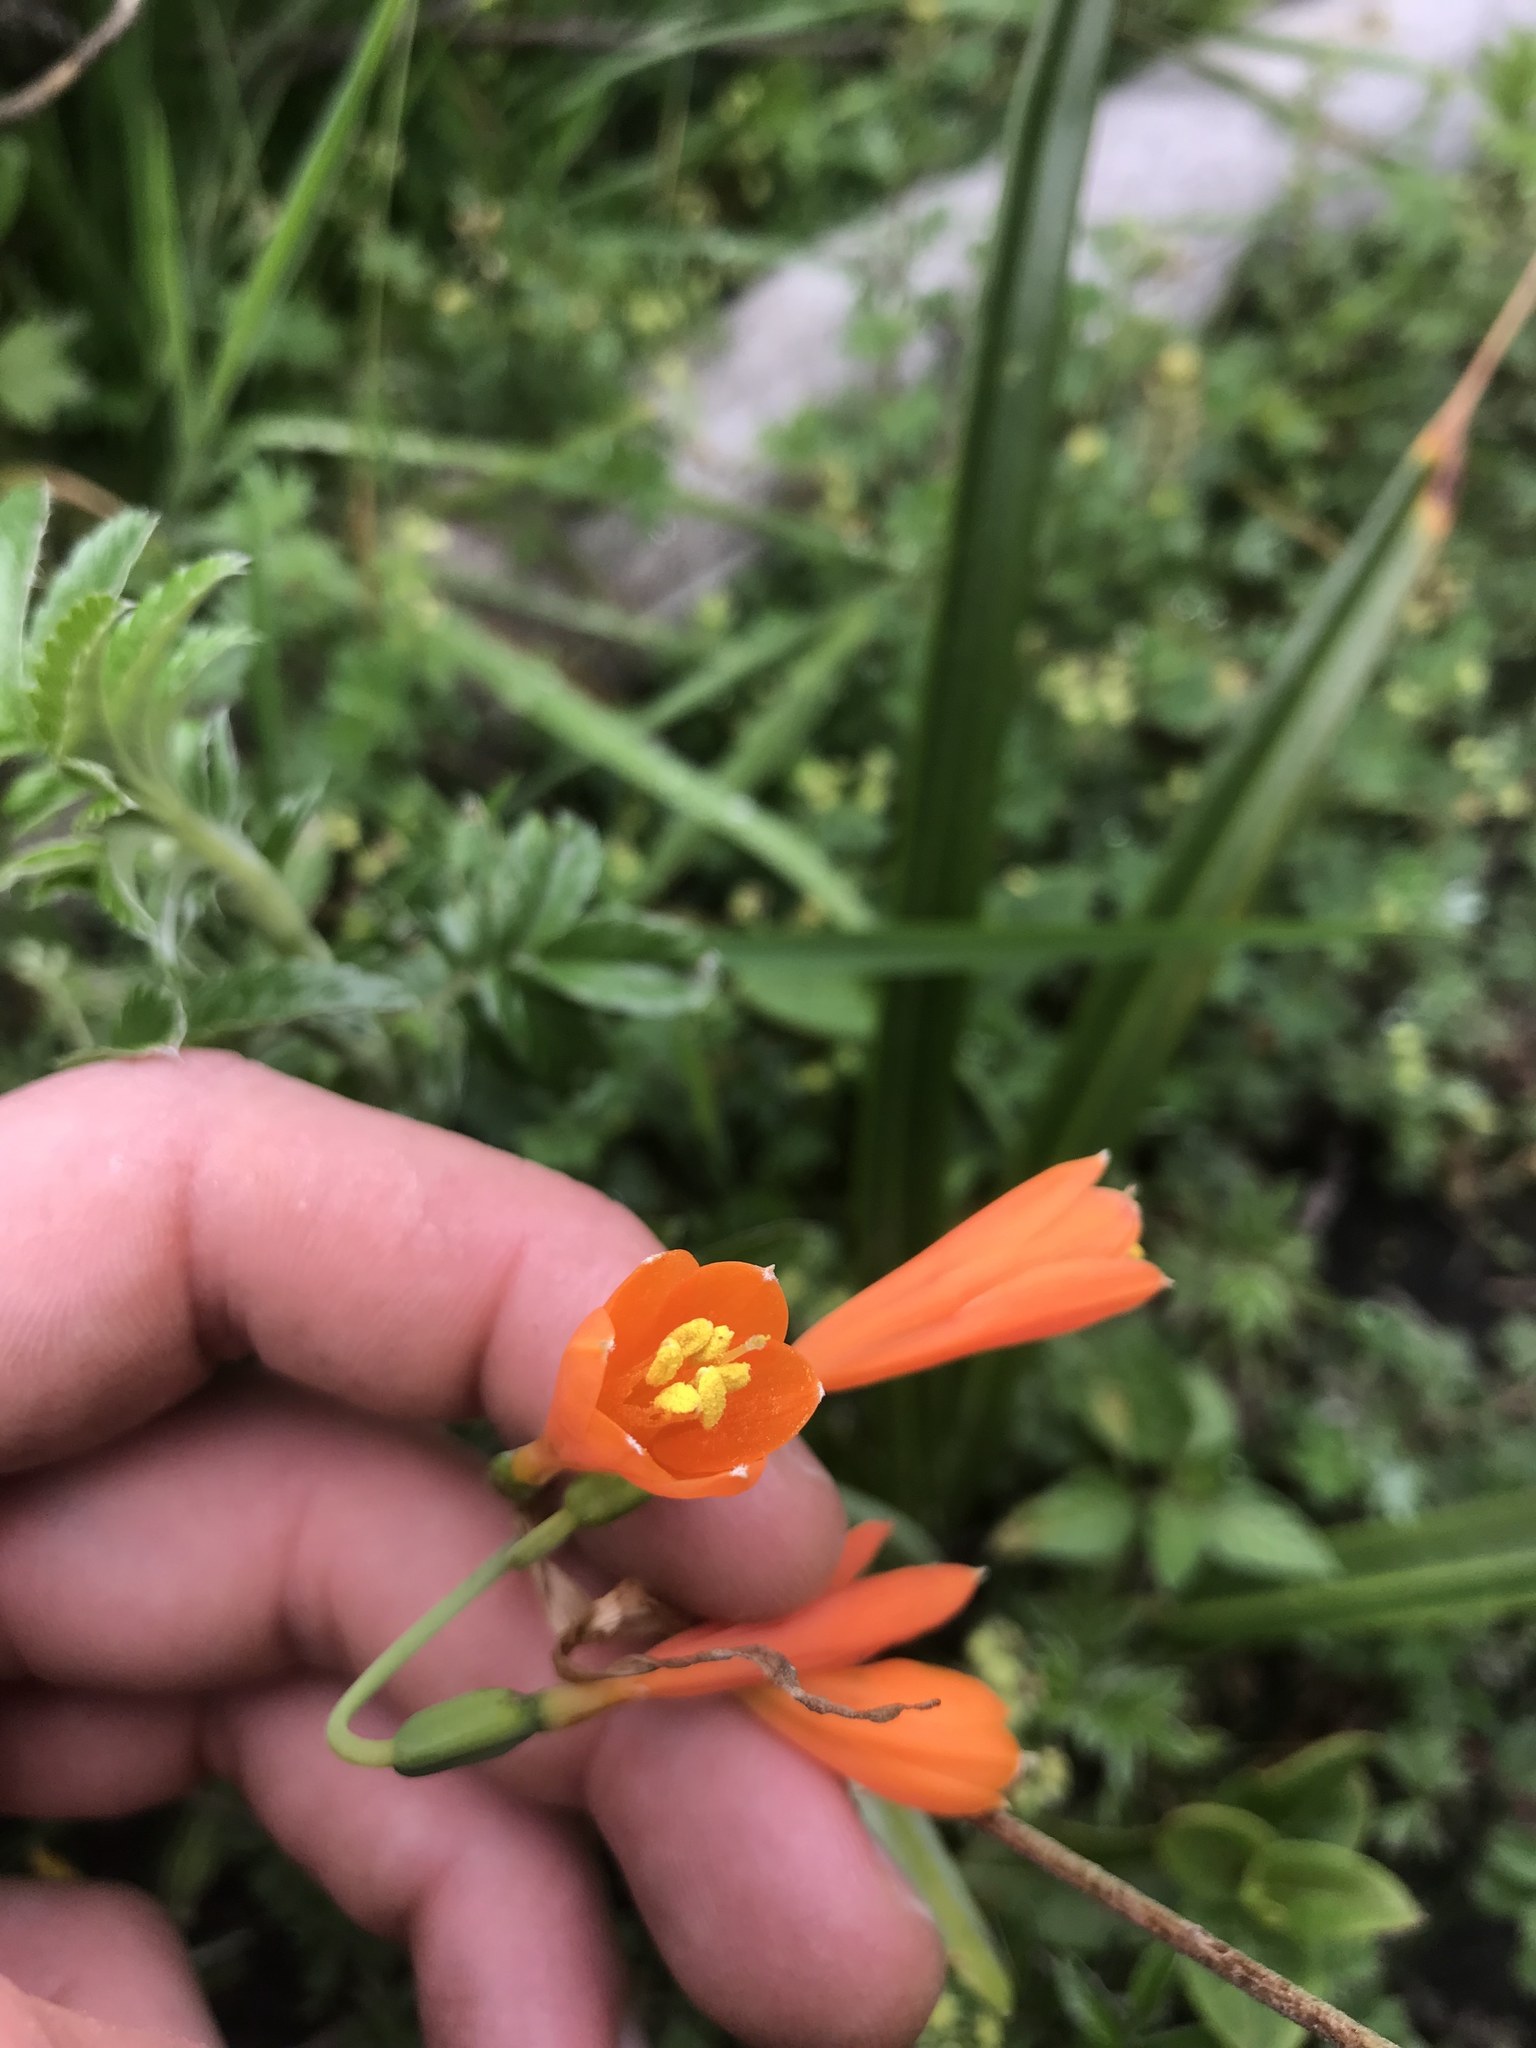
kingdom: Plantae
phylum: Tracheophyta
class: Liliopsida
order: Asparagales
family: Amaryllidaceae
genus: Stenomesson
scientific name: Stenomesson aurantiacum
